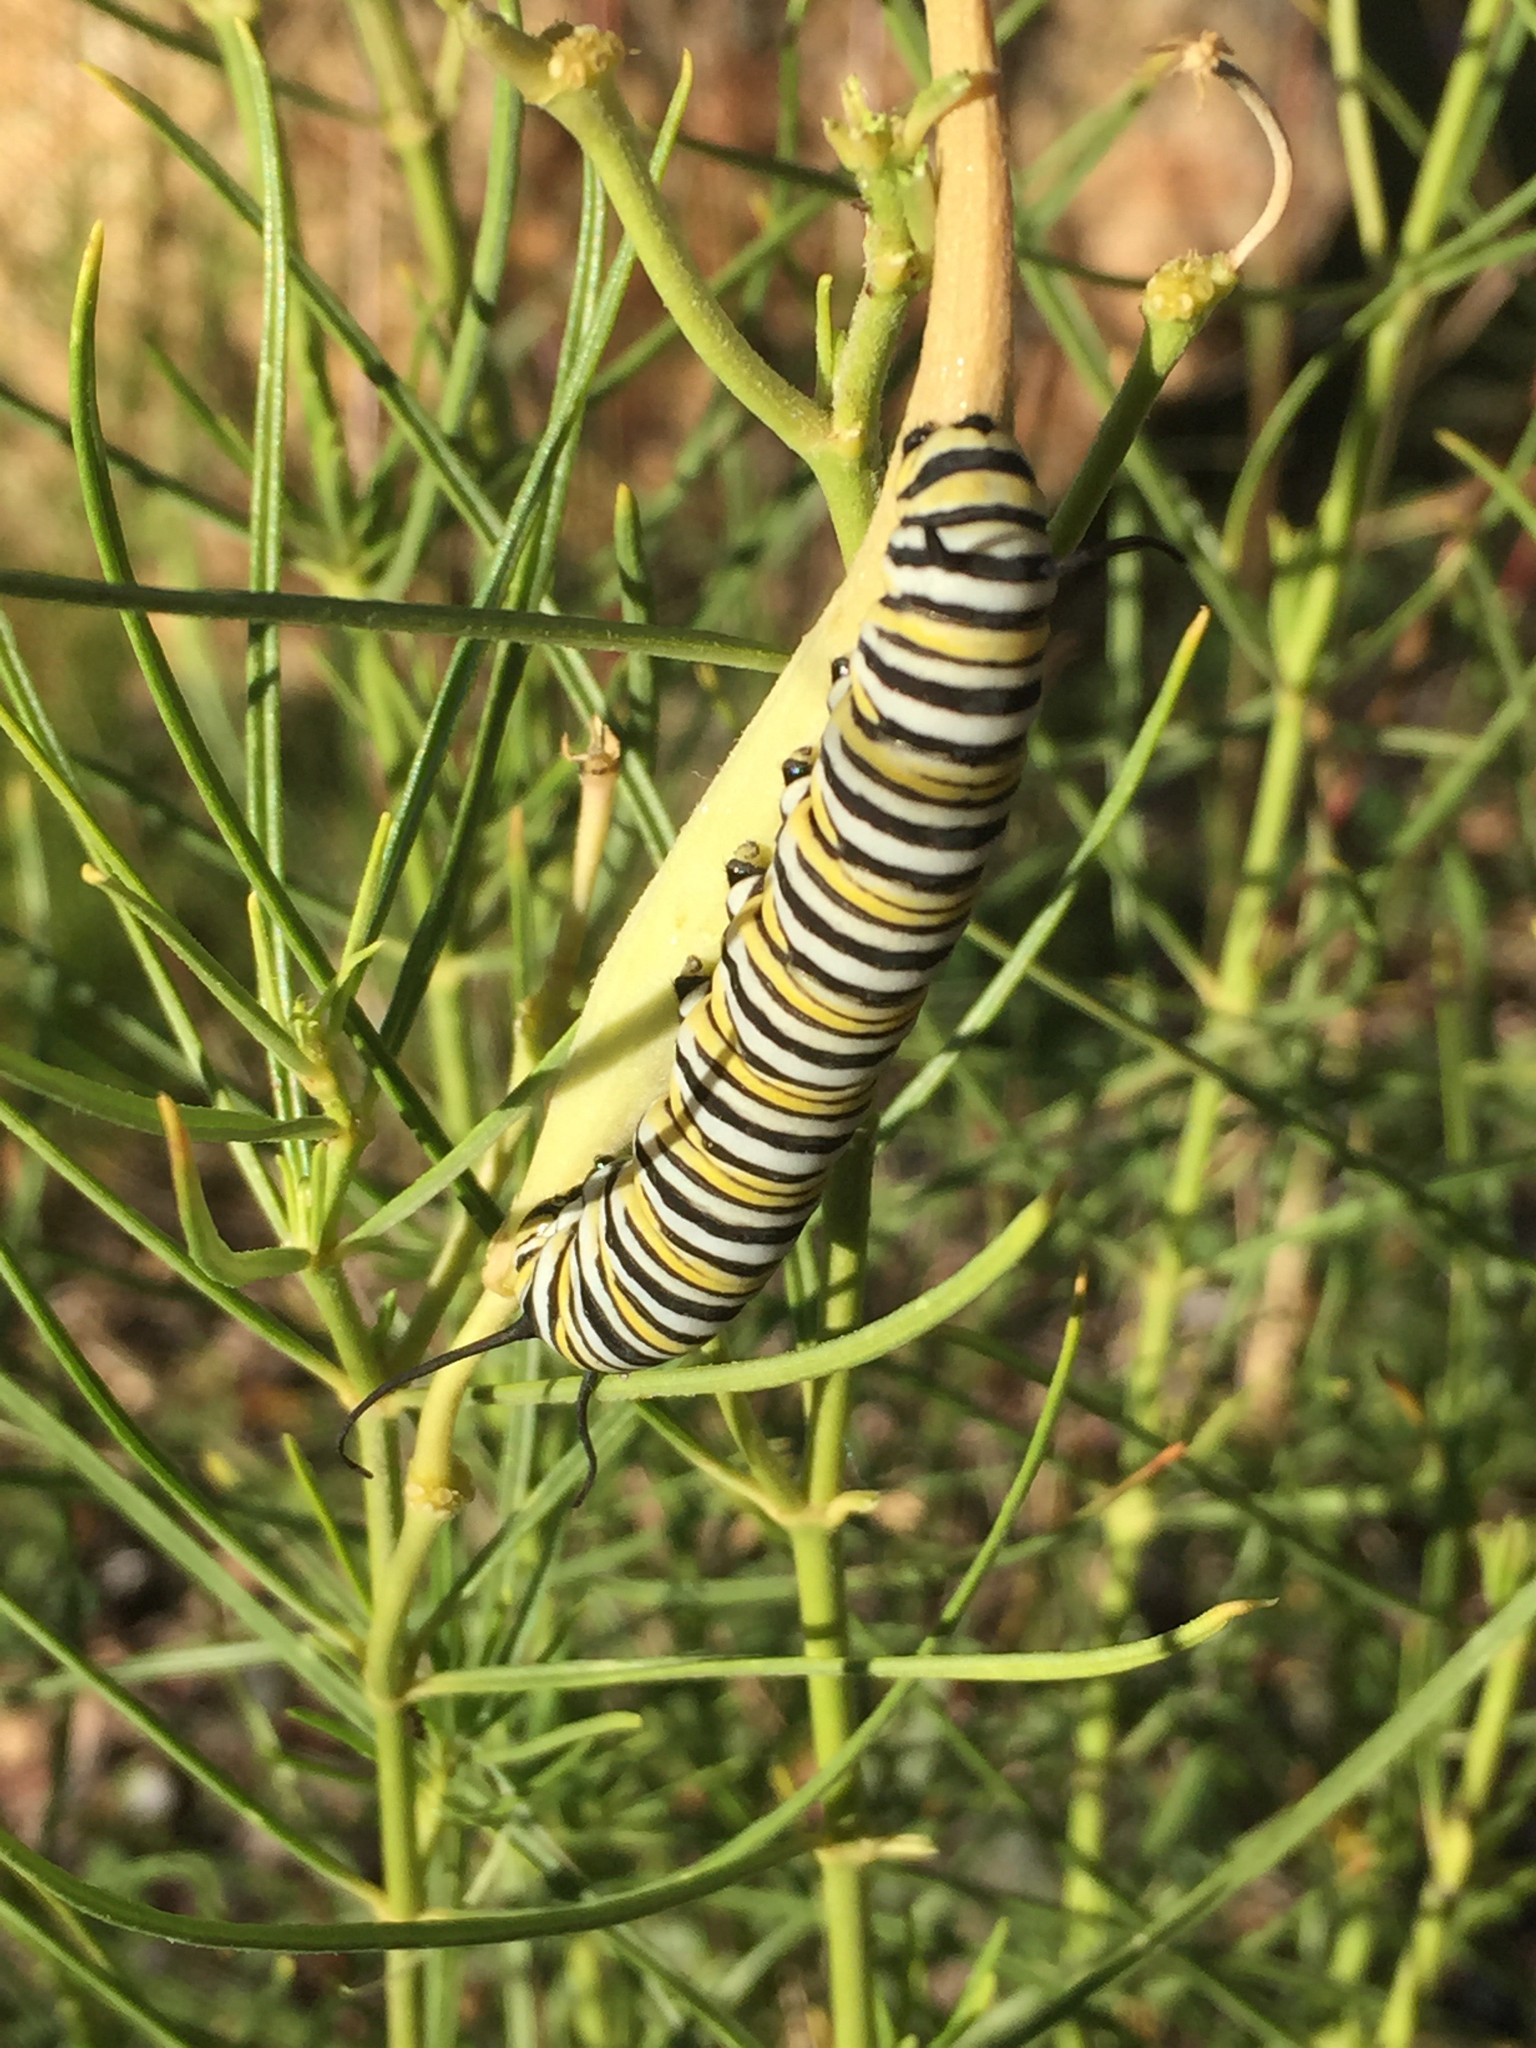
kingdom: Animalia
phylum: Arthropoda
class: Insecta
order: Lepidoptera
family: Nymphalidae
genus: Danaus
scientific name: Danaus plexippus
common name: Monarch
